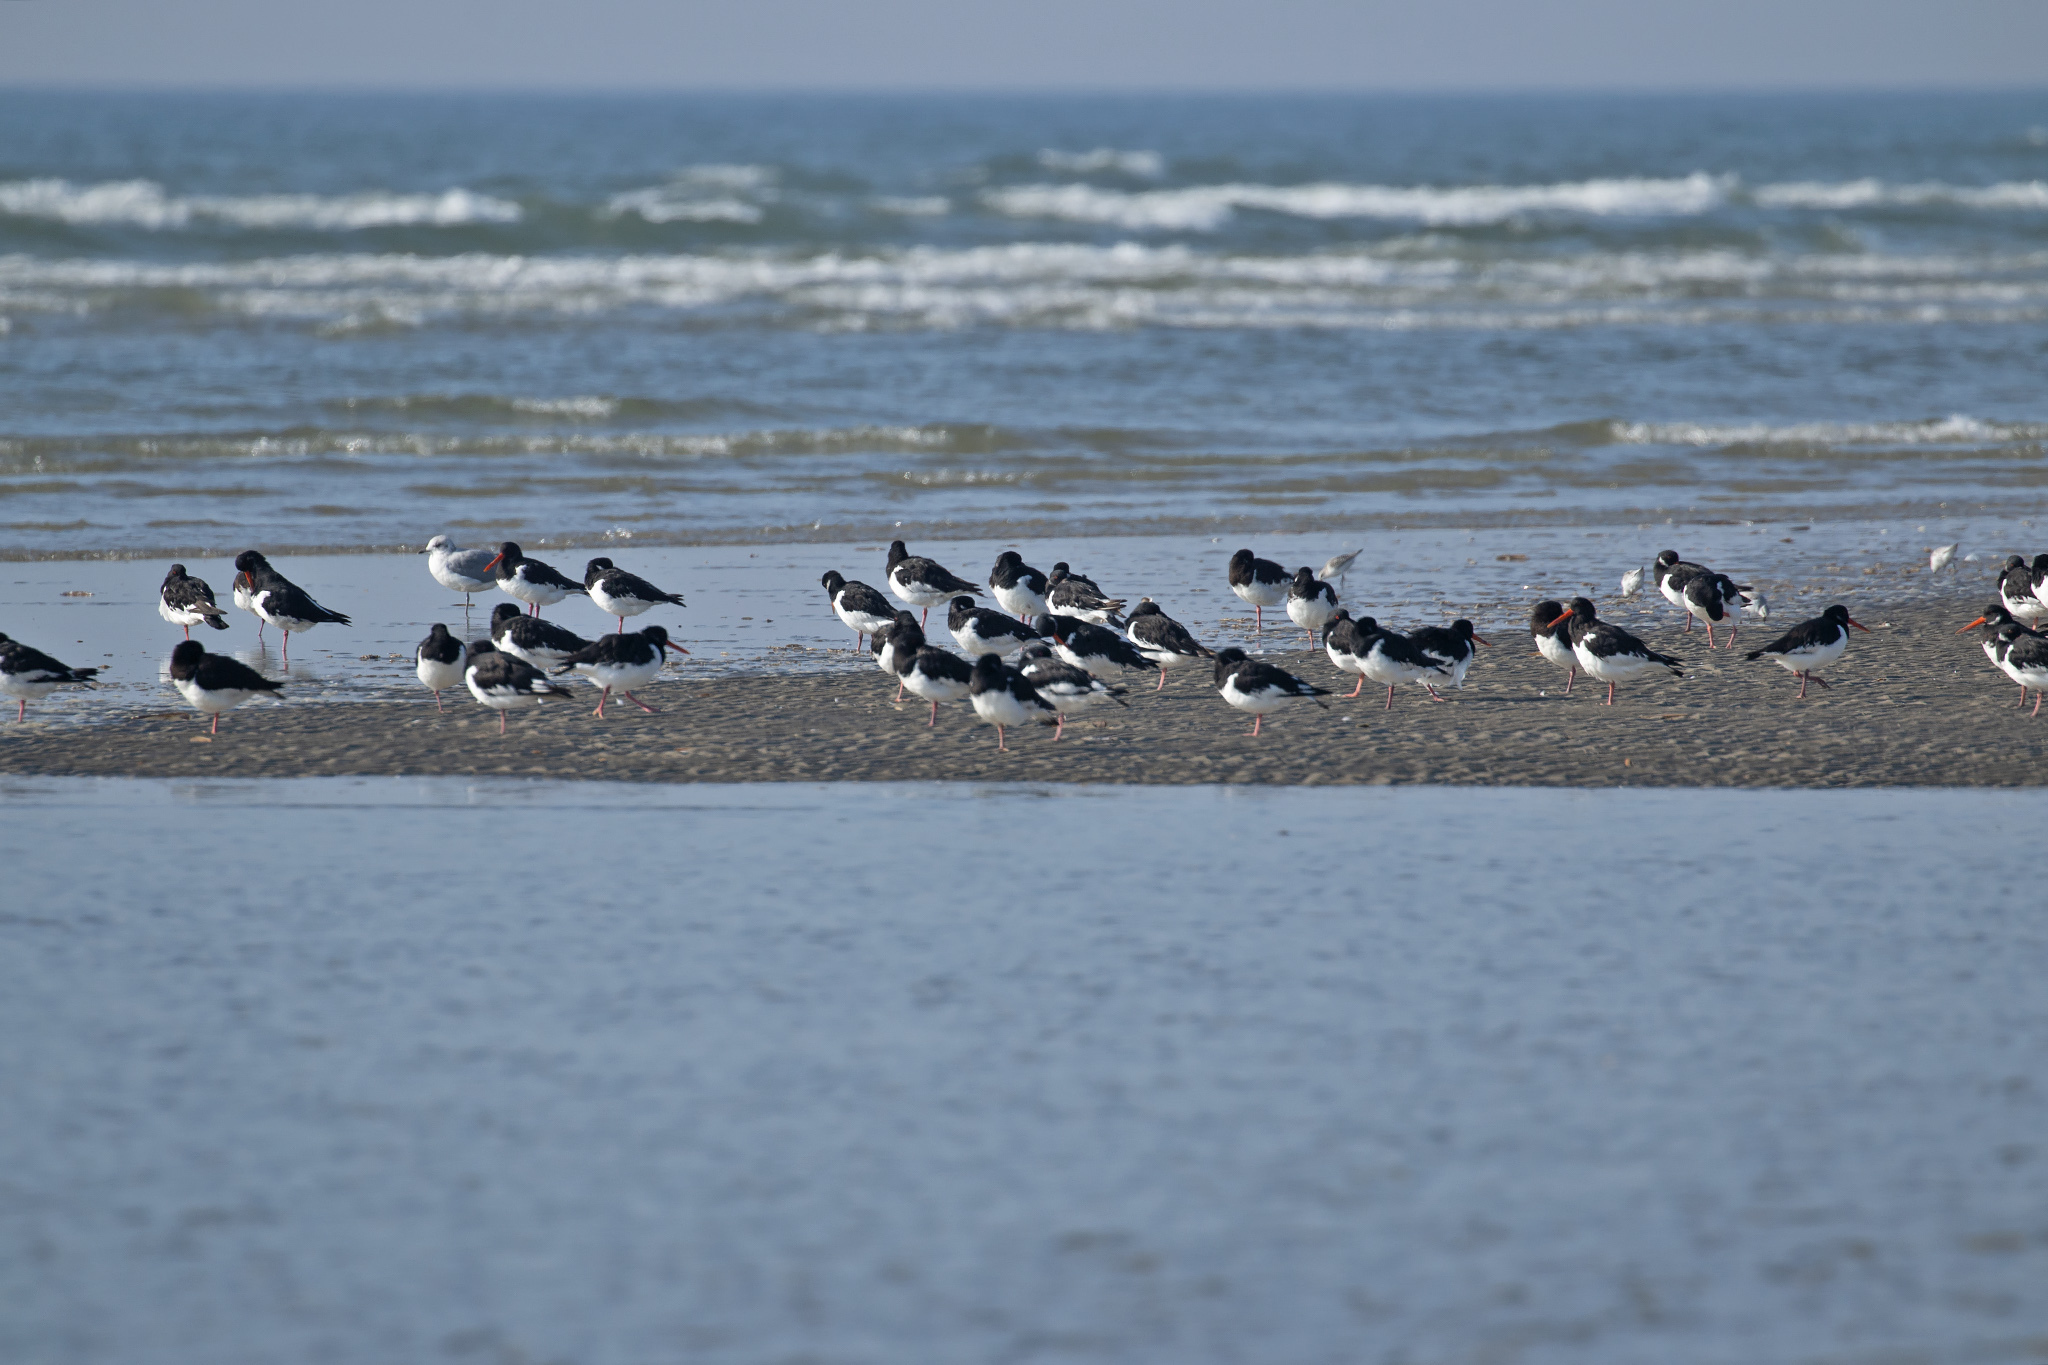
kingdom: Animalia
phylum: Chordata
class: Aves
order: Charadriiformes
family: Haematopodidae
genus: Haematopus
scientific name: Haematopus ostralegus
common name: Eurasian oystercatcher
